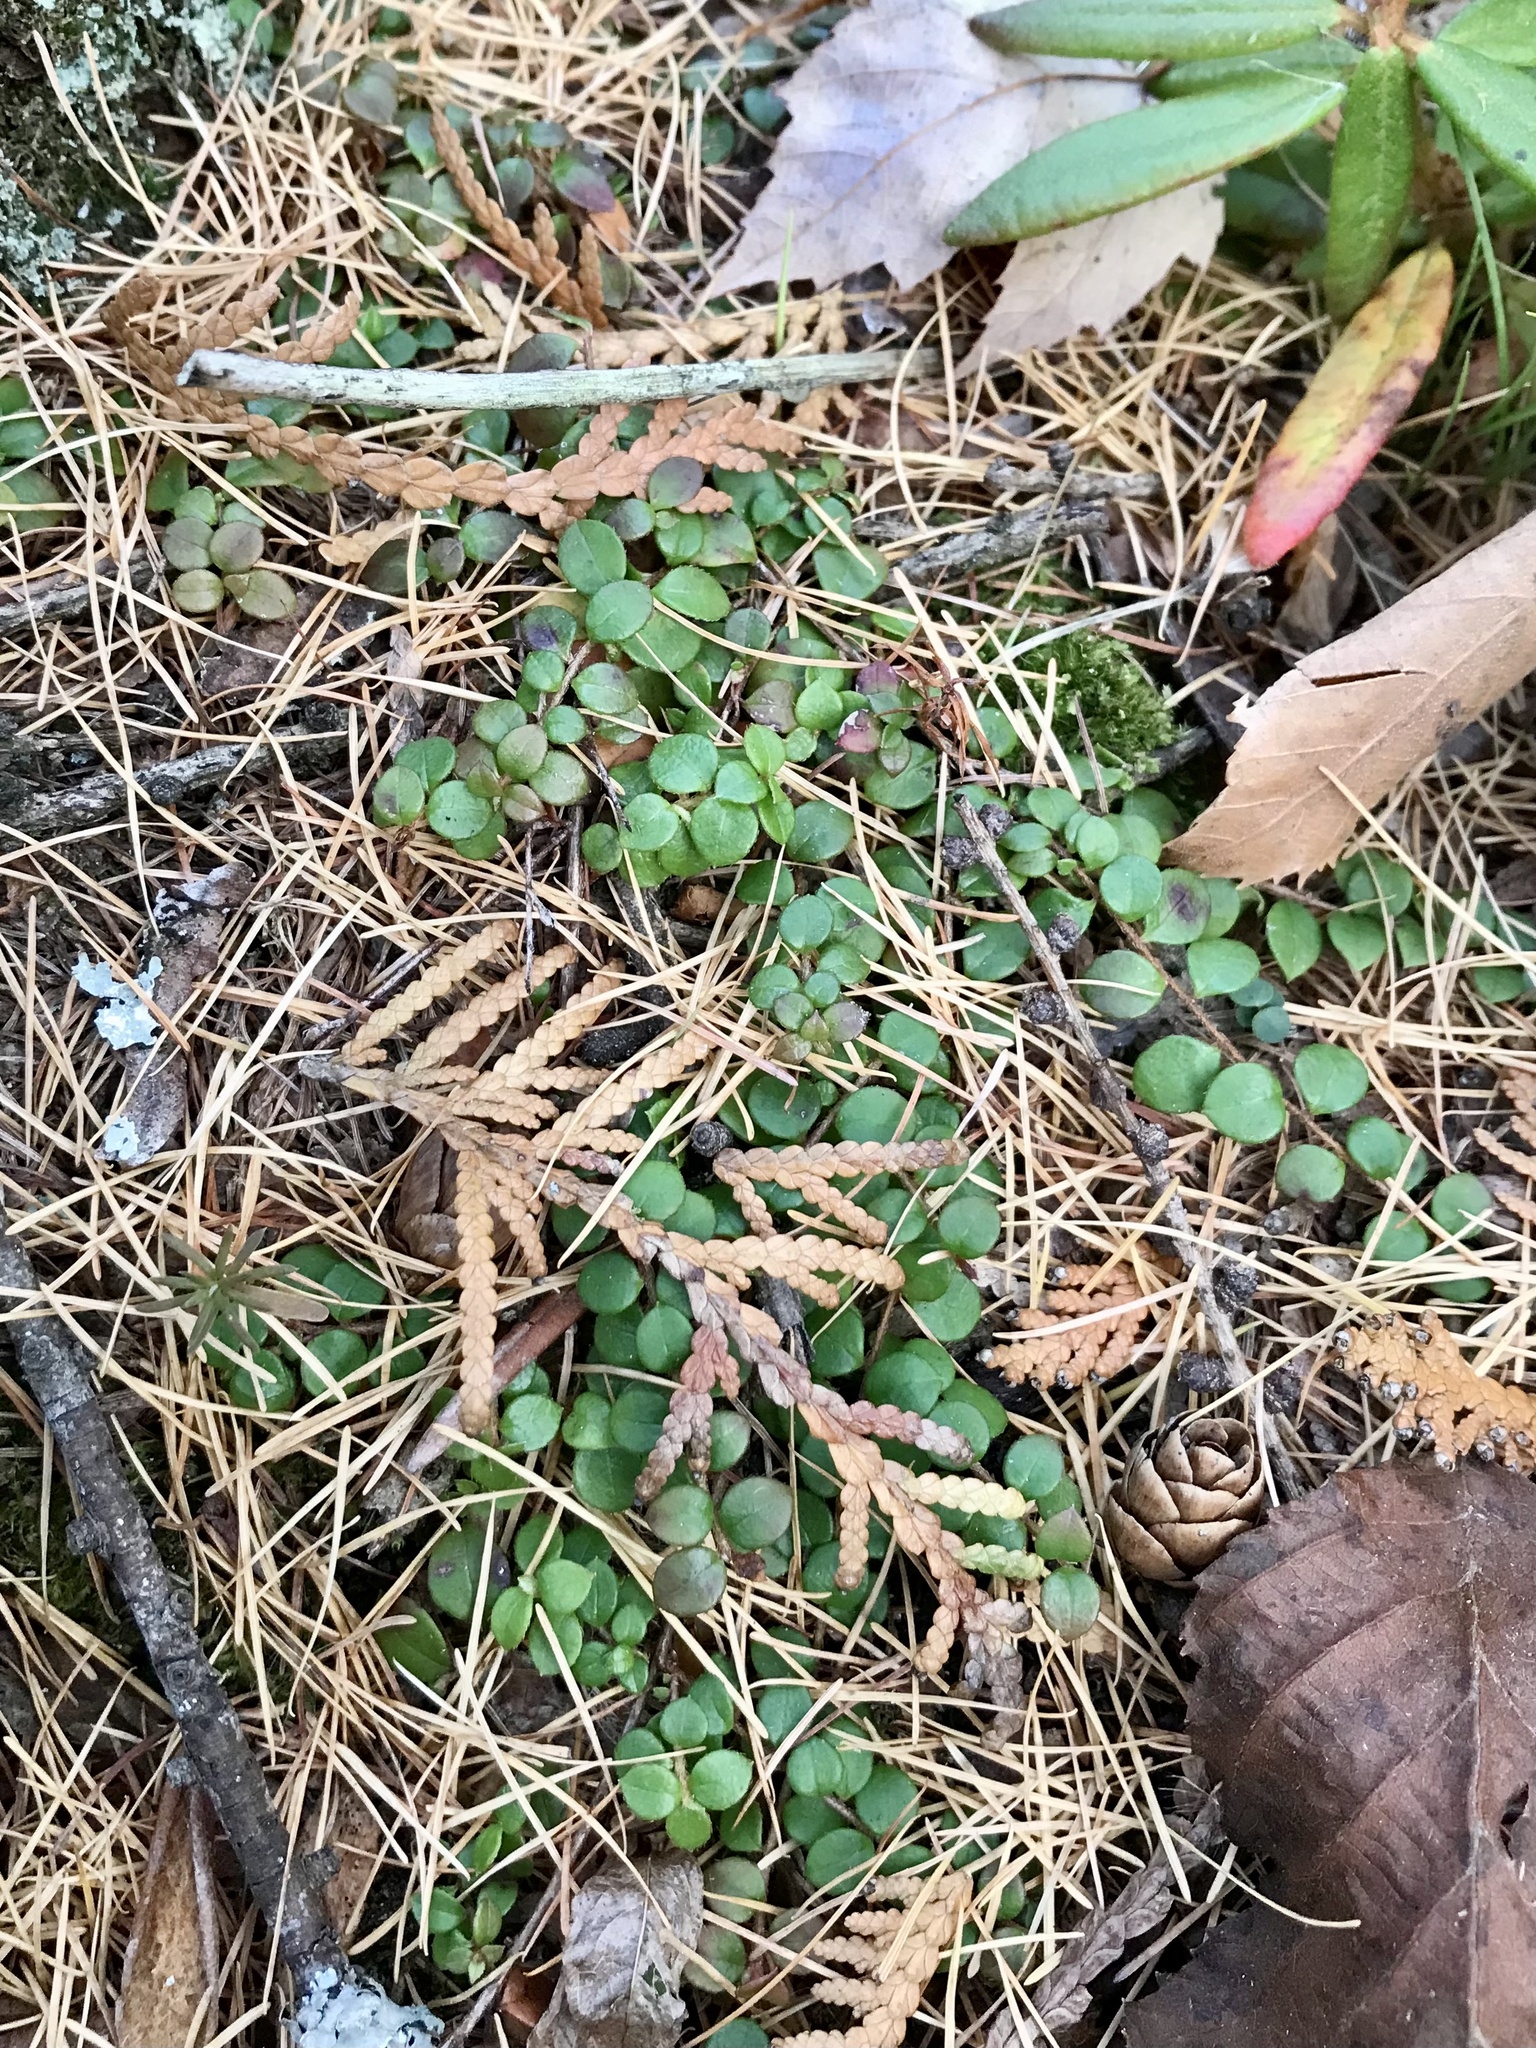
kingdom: Plantae
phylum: Tracheophyta
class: Magnoliopsida
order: Ericales
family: Ericaceae
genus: Gaultheria
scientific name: Gaultheria hispidula
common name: Cancer wintergreen
